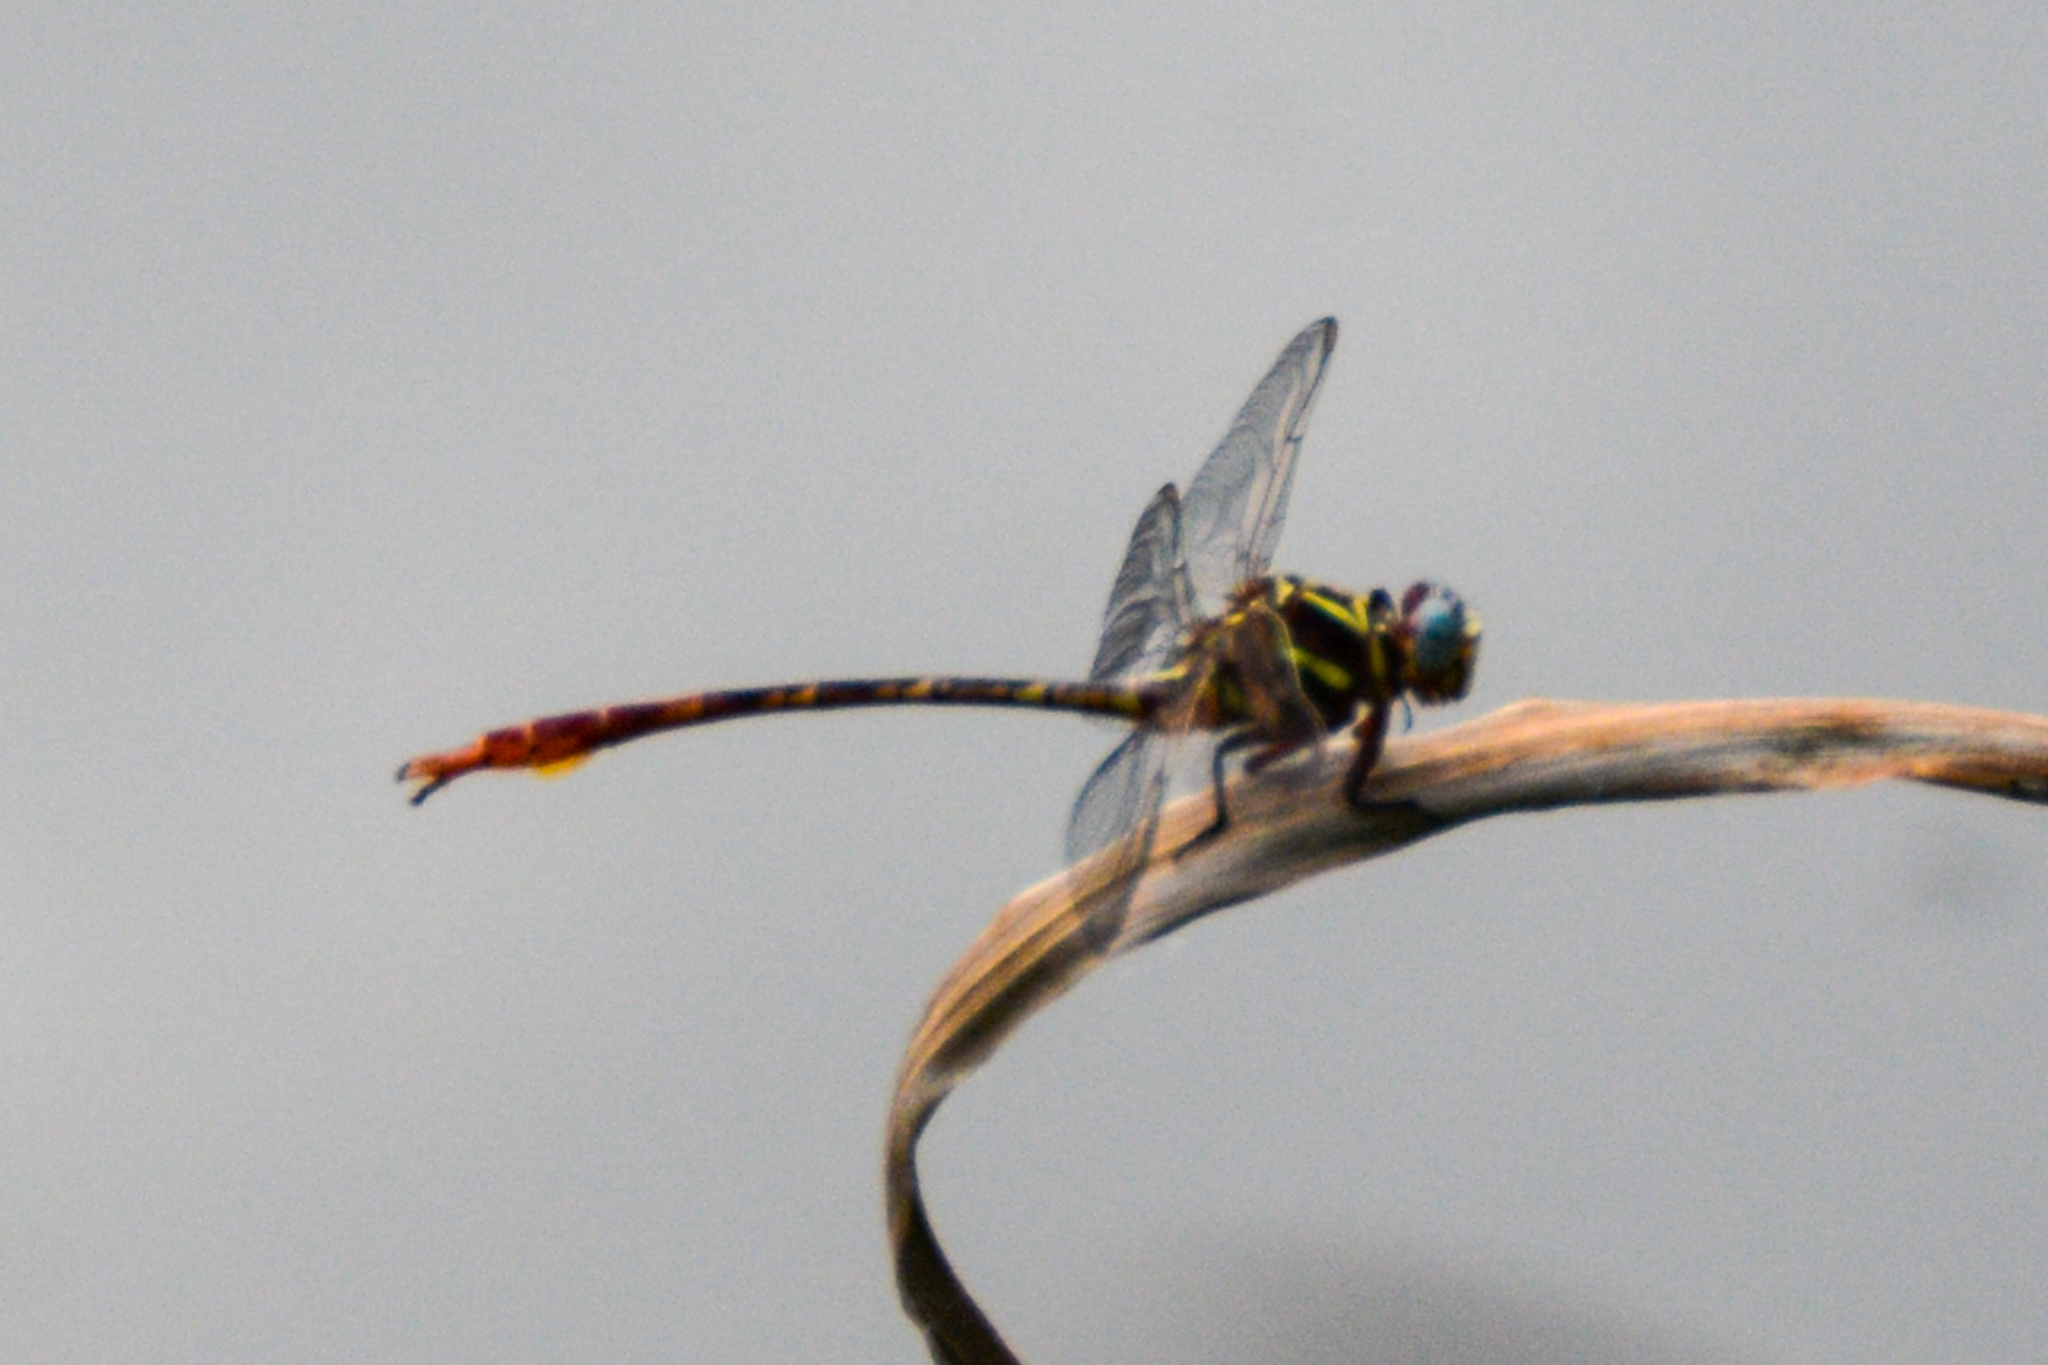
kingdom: Animalia
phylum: Arthropoda
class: Insecta
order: Odonata
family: Gomphidae
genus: Aphylla
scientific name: Aphylla williamsoni
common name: Two-striped forceptail
